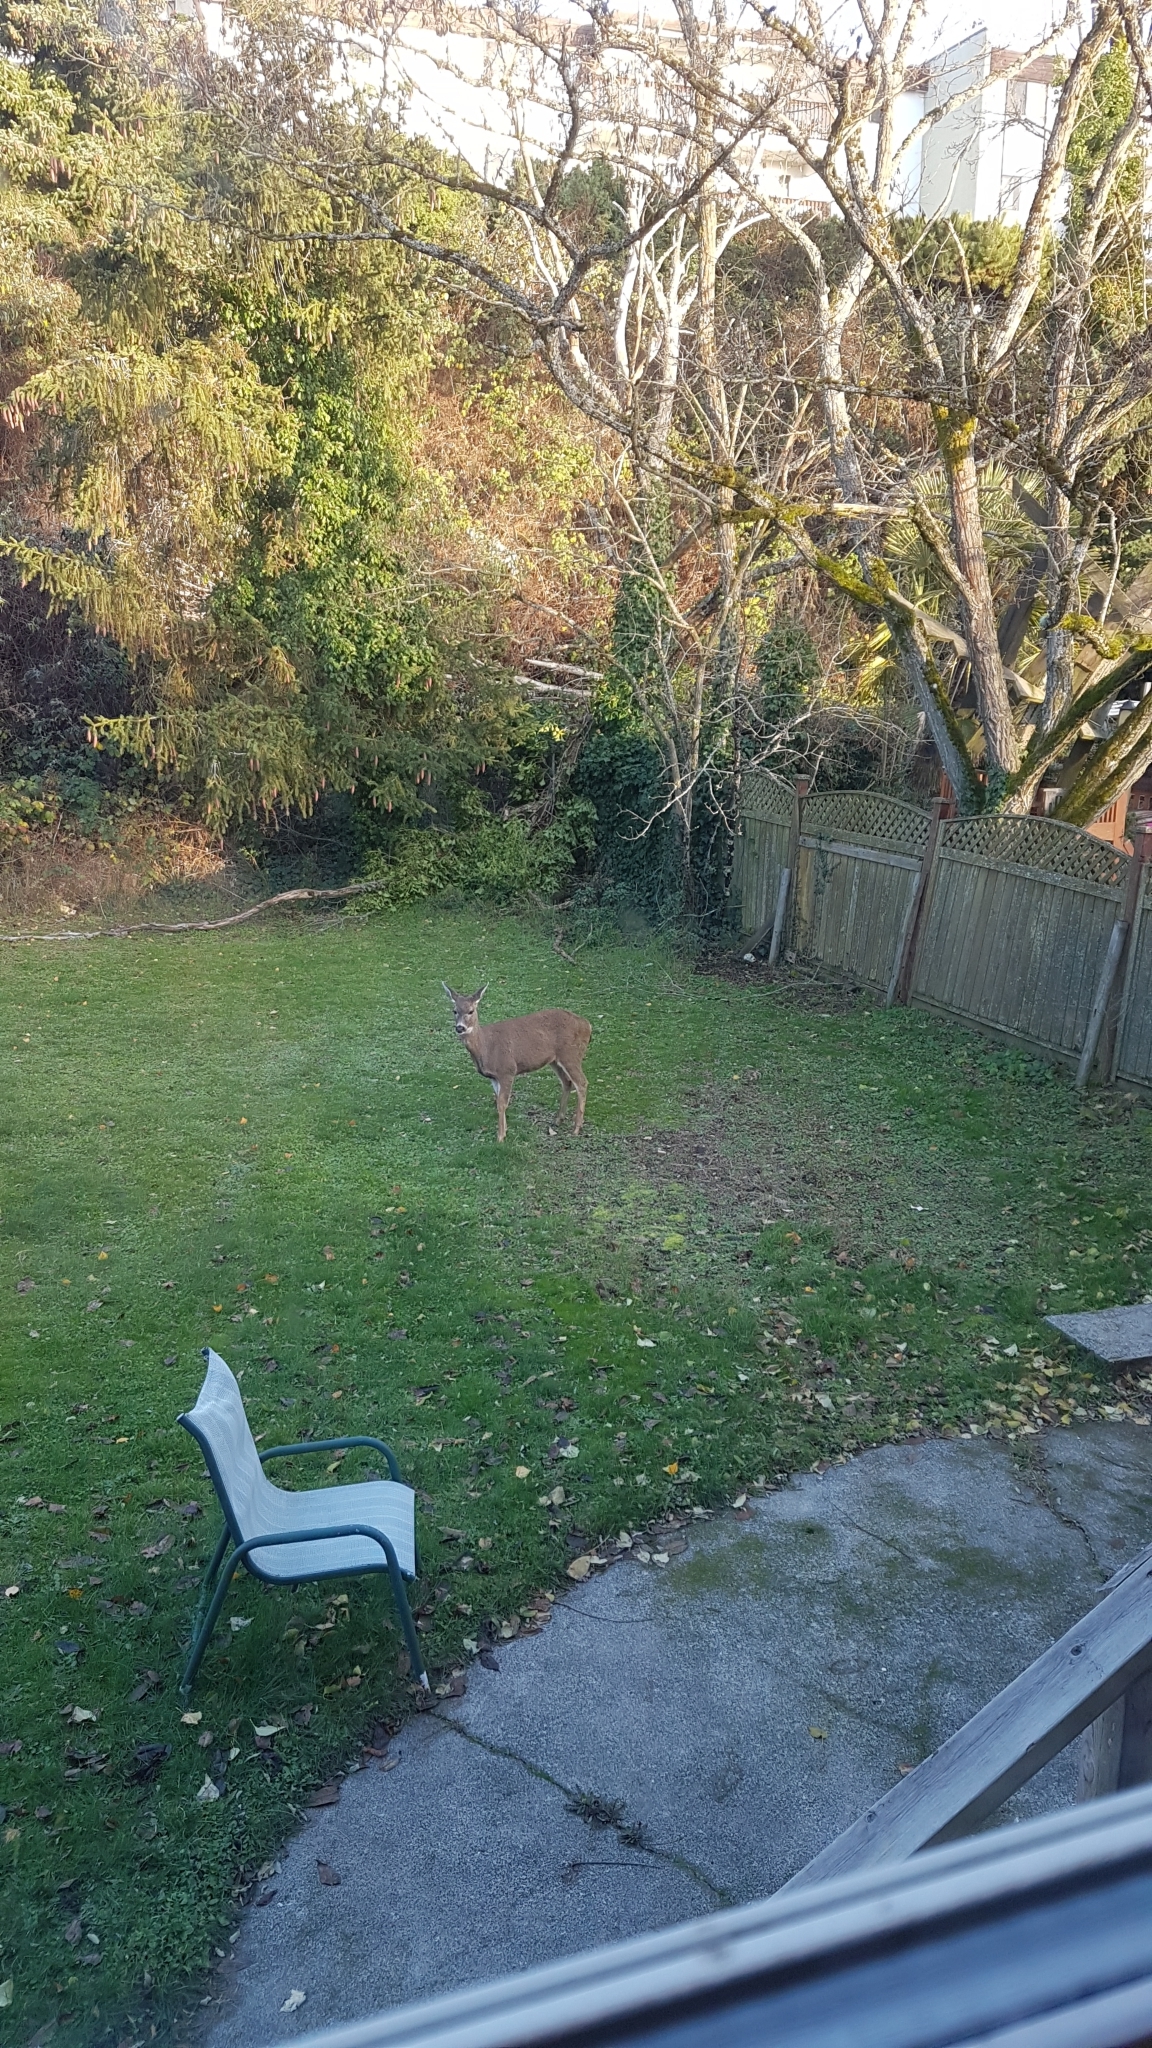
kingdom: Animalia
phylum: Chordata
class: Mammalia
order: Artiodactyla
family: Cervidae
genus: Odocoileus
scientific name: Odocoileus hemionus
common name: Mule deer
